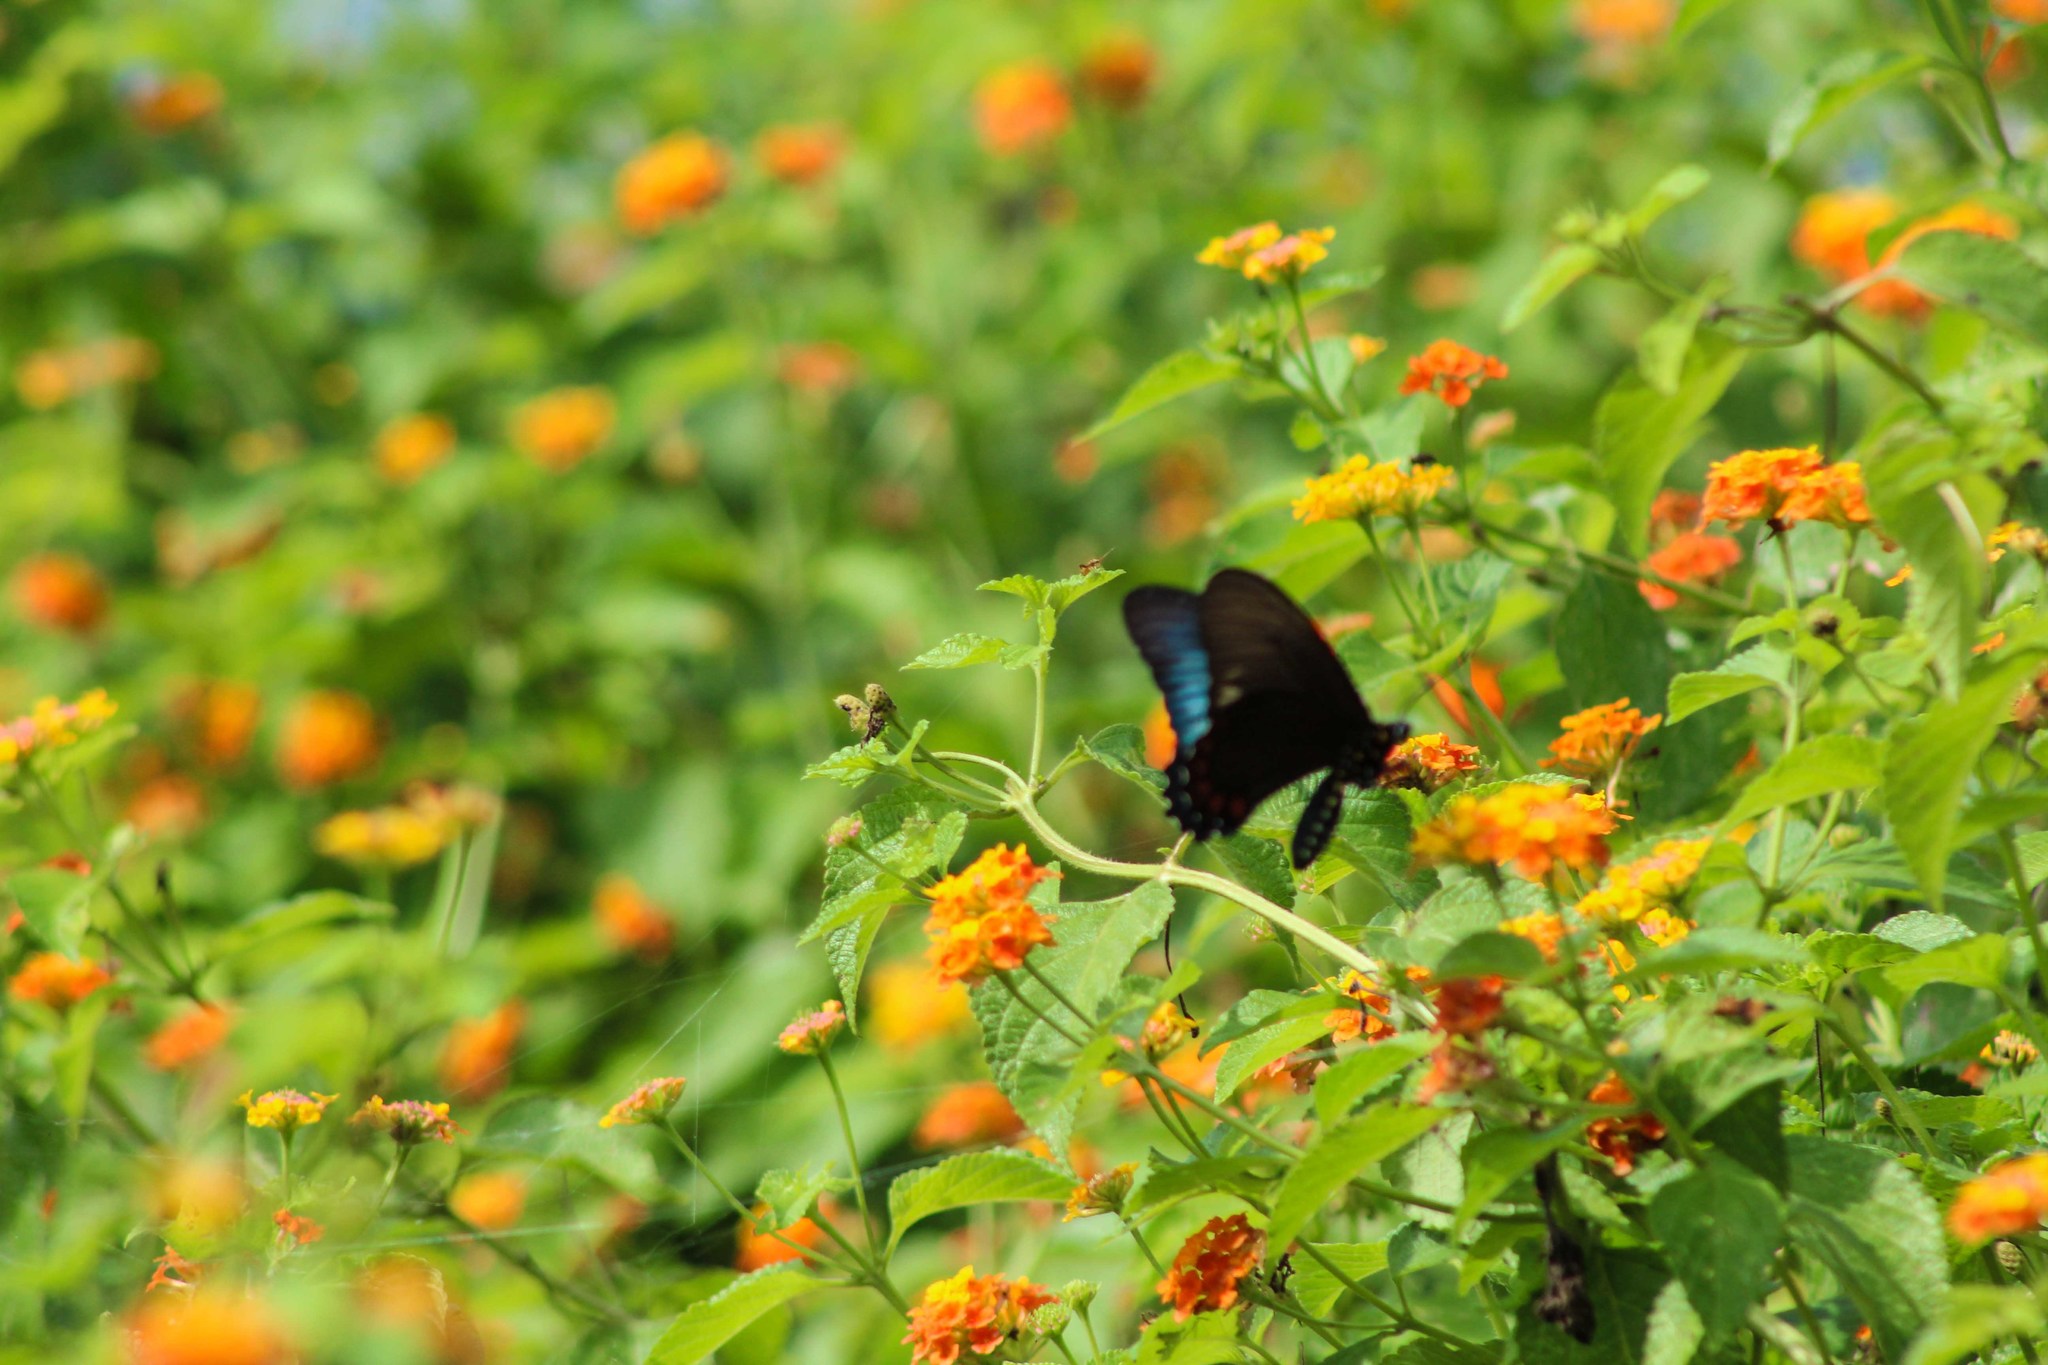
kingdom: Animalia
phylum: Arthropoda
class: Insecta
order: Lepidoptera
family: Papilionidae
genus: Battus
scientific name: Battus lycidas
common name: Cramer's swallowtail
